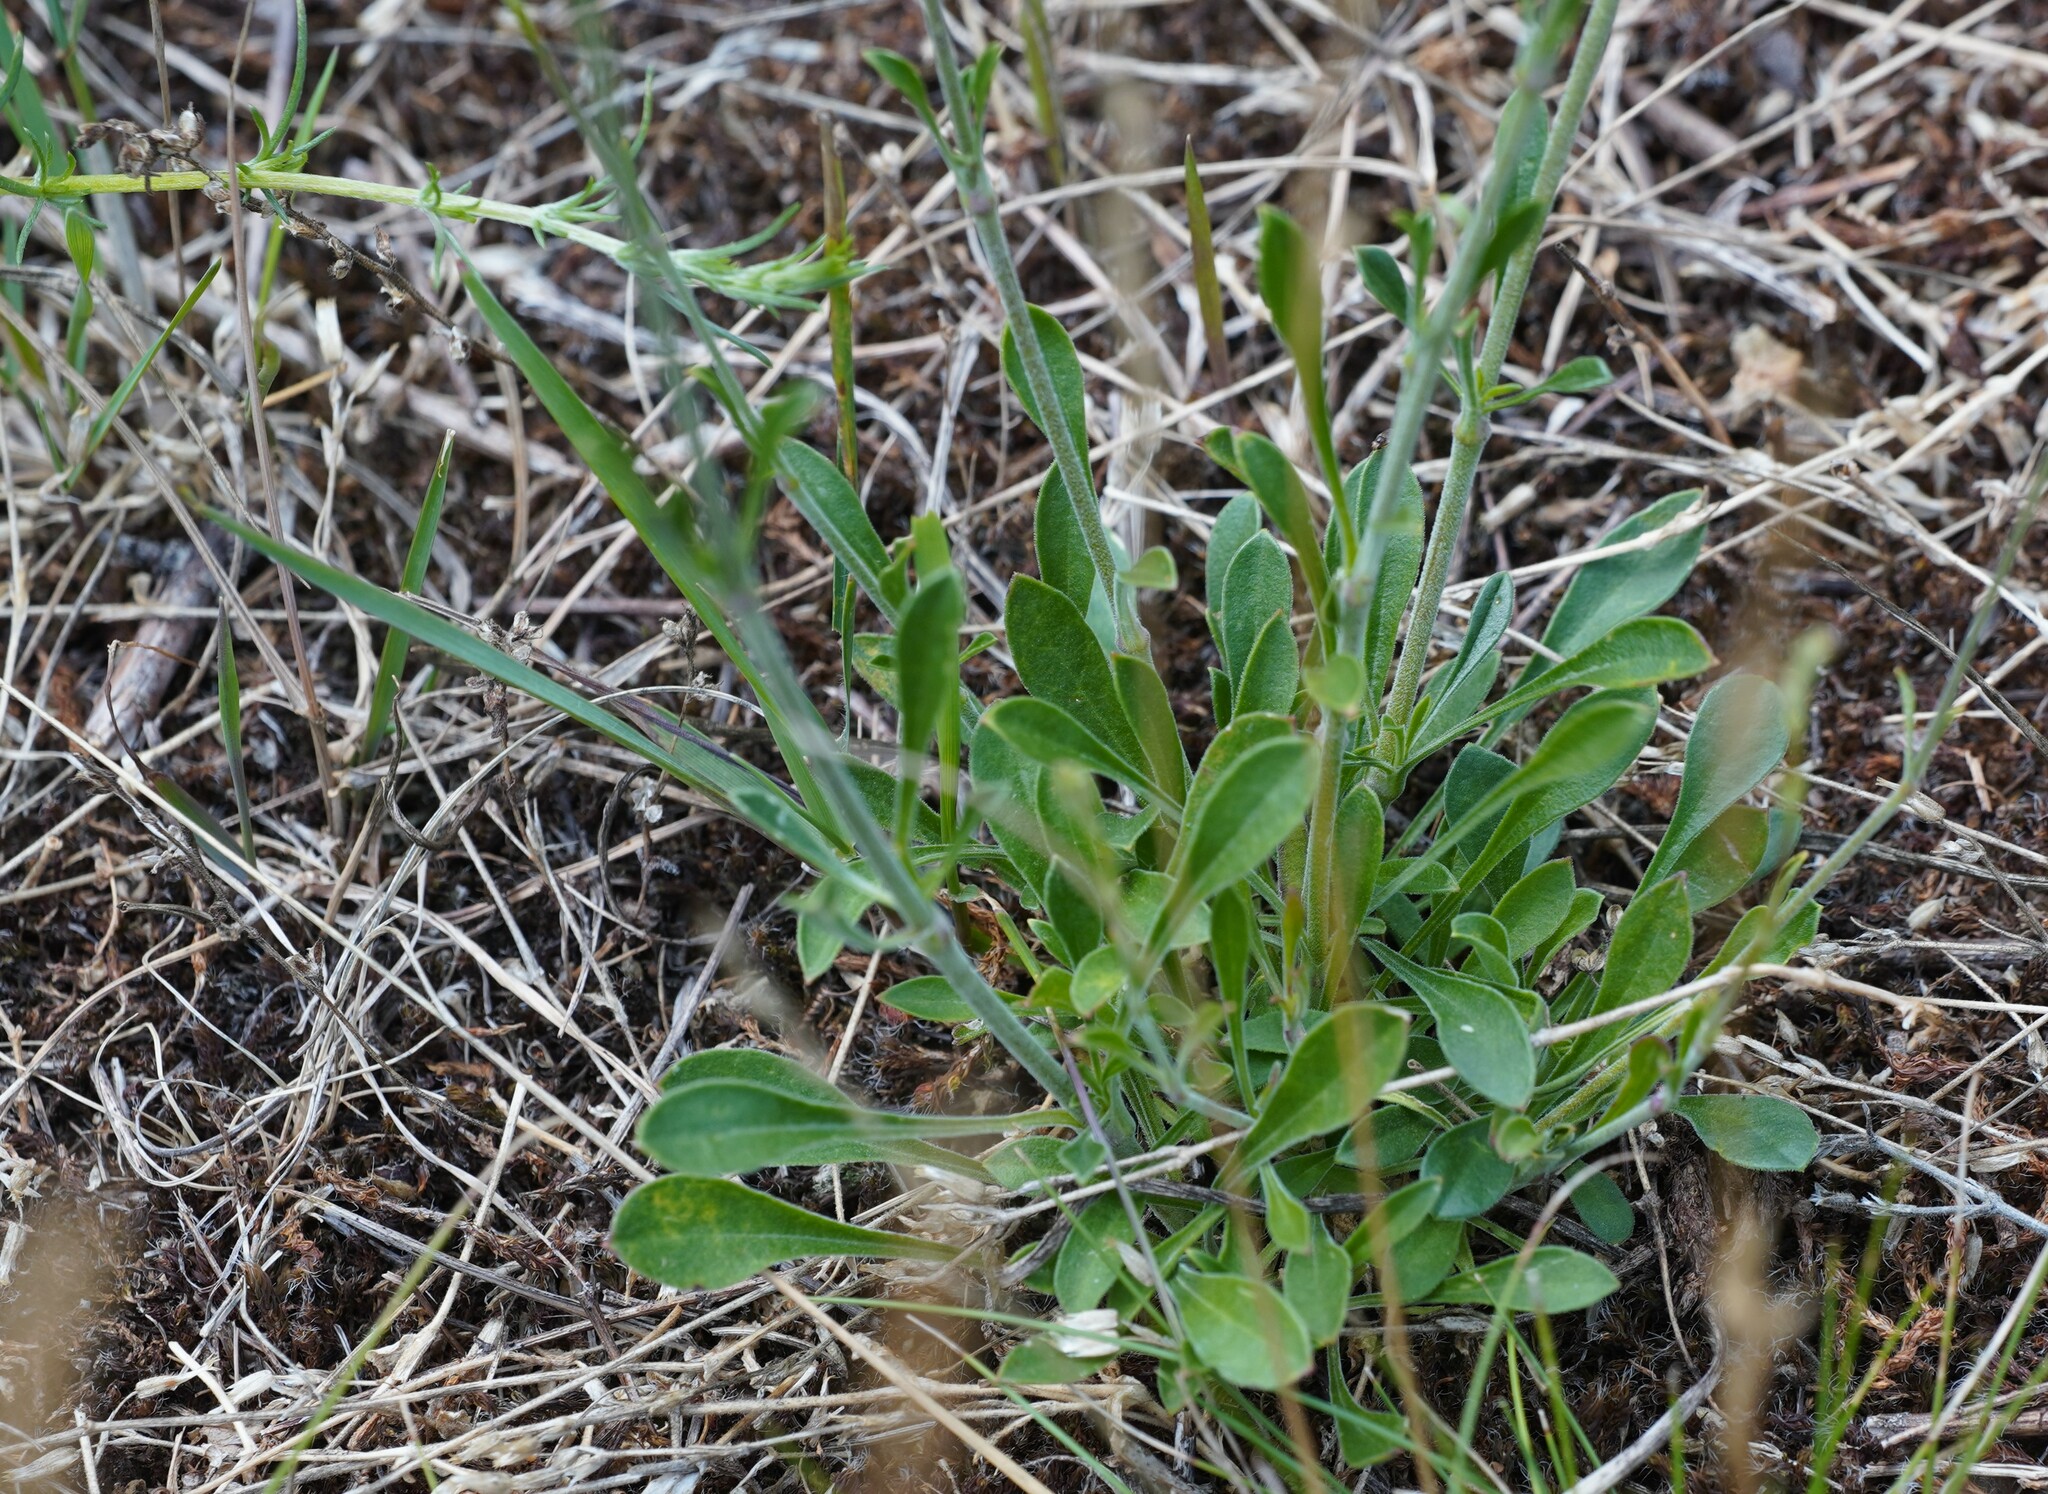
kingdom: Plantae
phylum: Tracheophyta
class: Magnoliopsida
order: Caryophyllales
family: Caryophyllaceae
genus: Silene
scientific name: Silene otites
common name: Spanish catchfly
